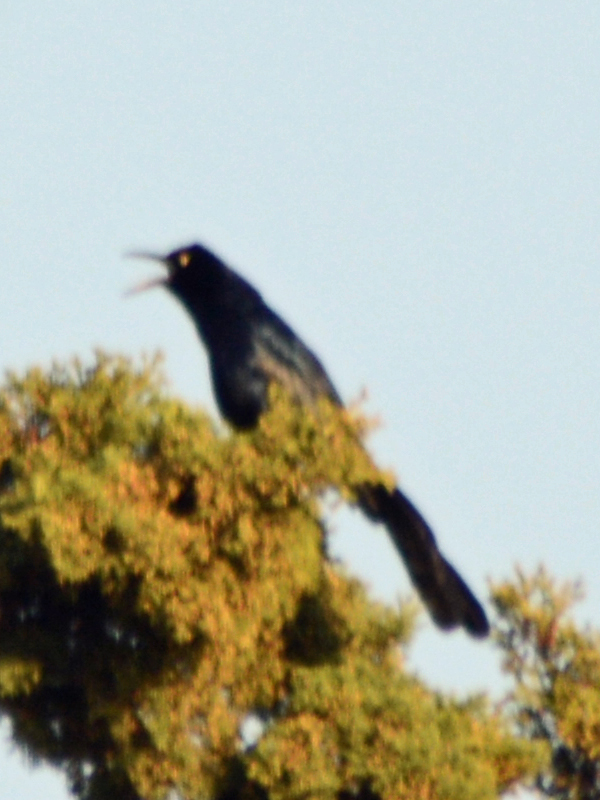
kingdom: Animalia
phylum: Chordata
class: Aves
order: Passeriformes
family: Icteridae
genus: Quiscalus
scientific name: Quiscalus mexicanus
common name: Great-tailed grackle
